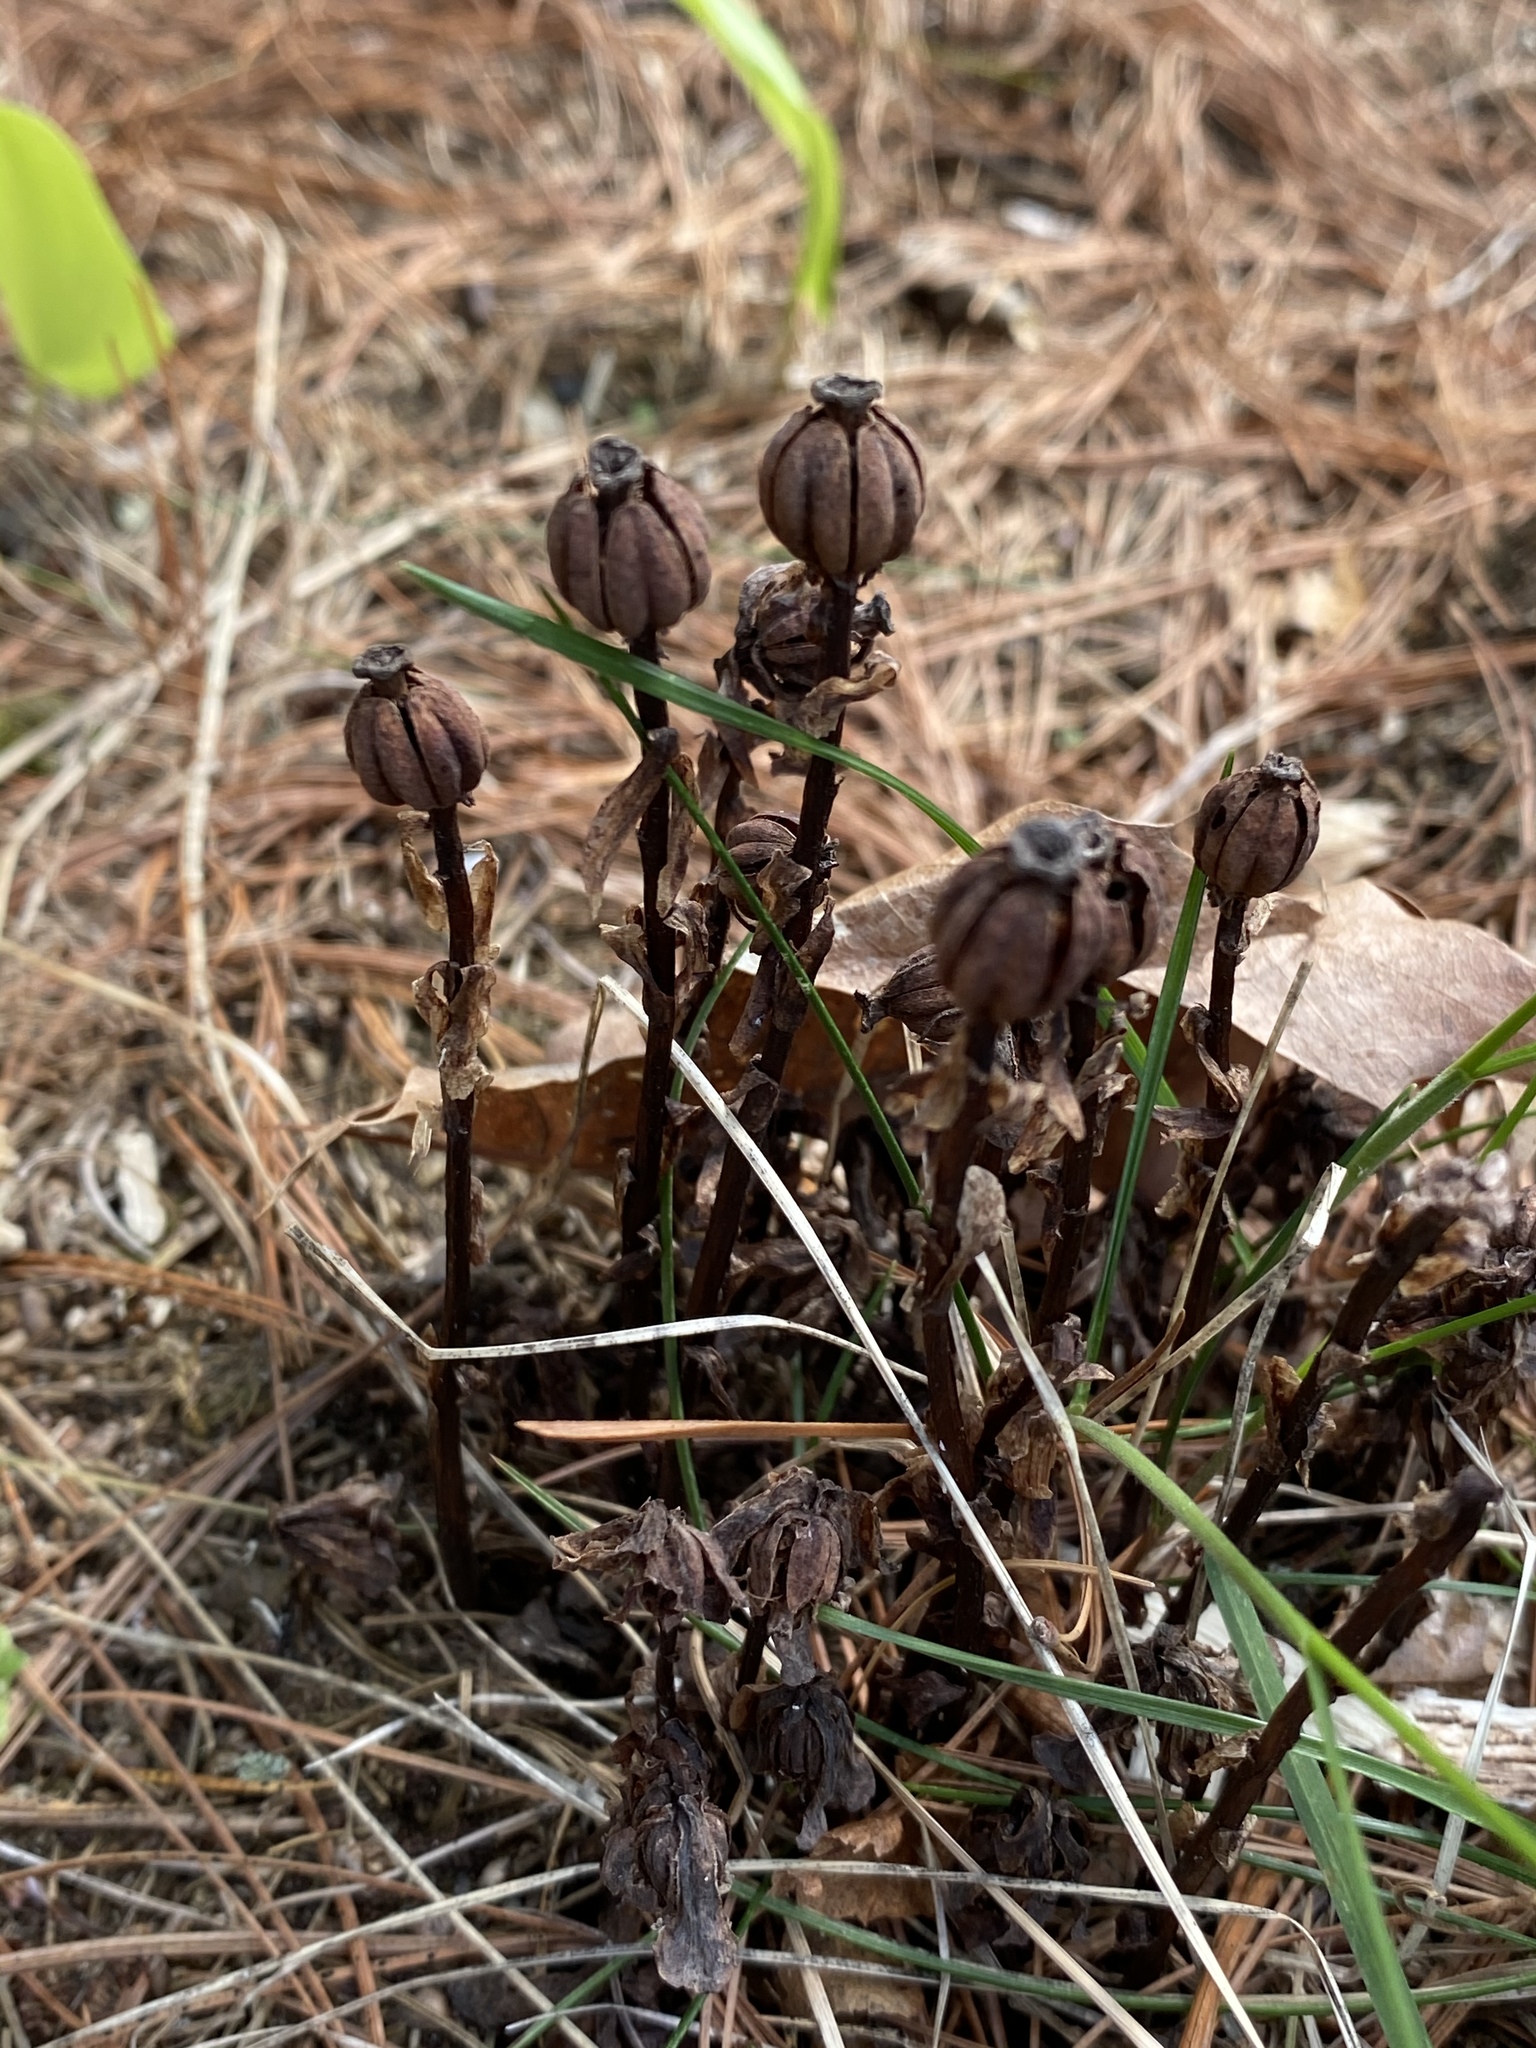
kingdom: Plantae
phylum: Tracheophyta
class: Magnoliopsida
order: Ericales
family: Ericaceae
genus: Monotropa
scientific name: Monotropa uniflora
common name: Convulsion root
